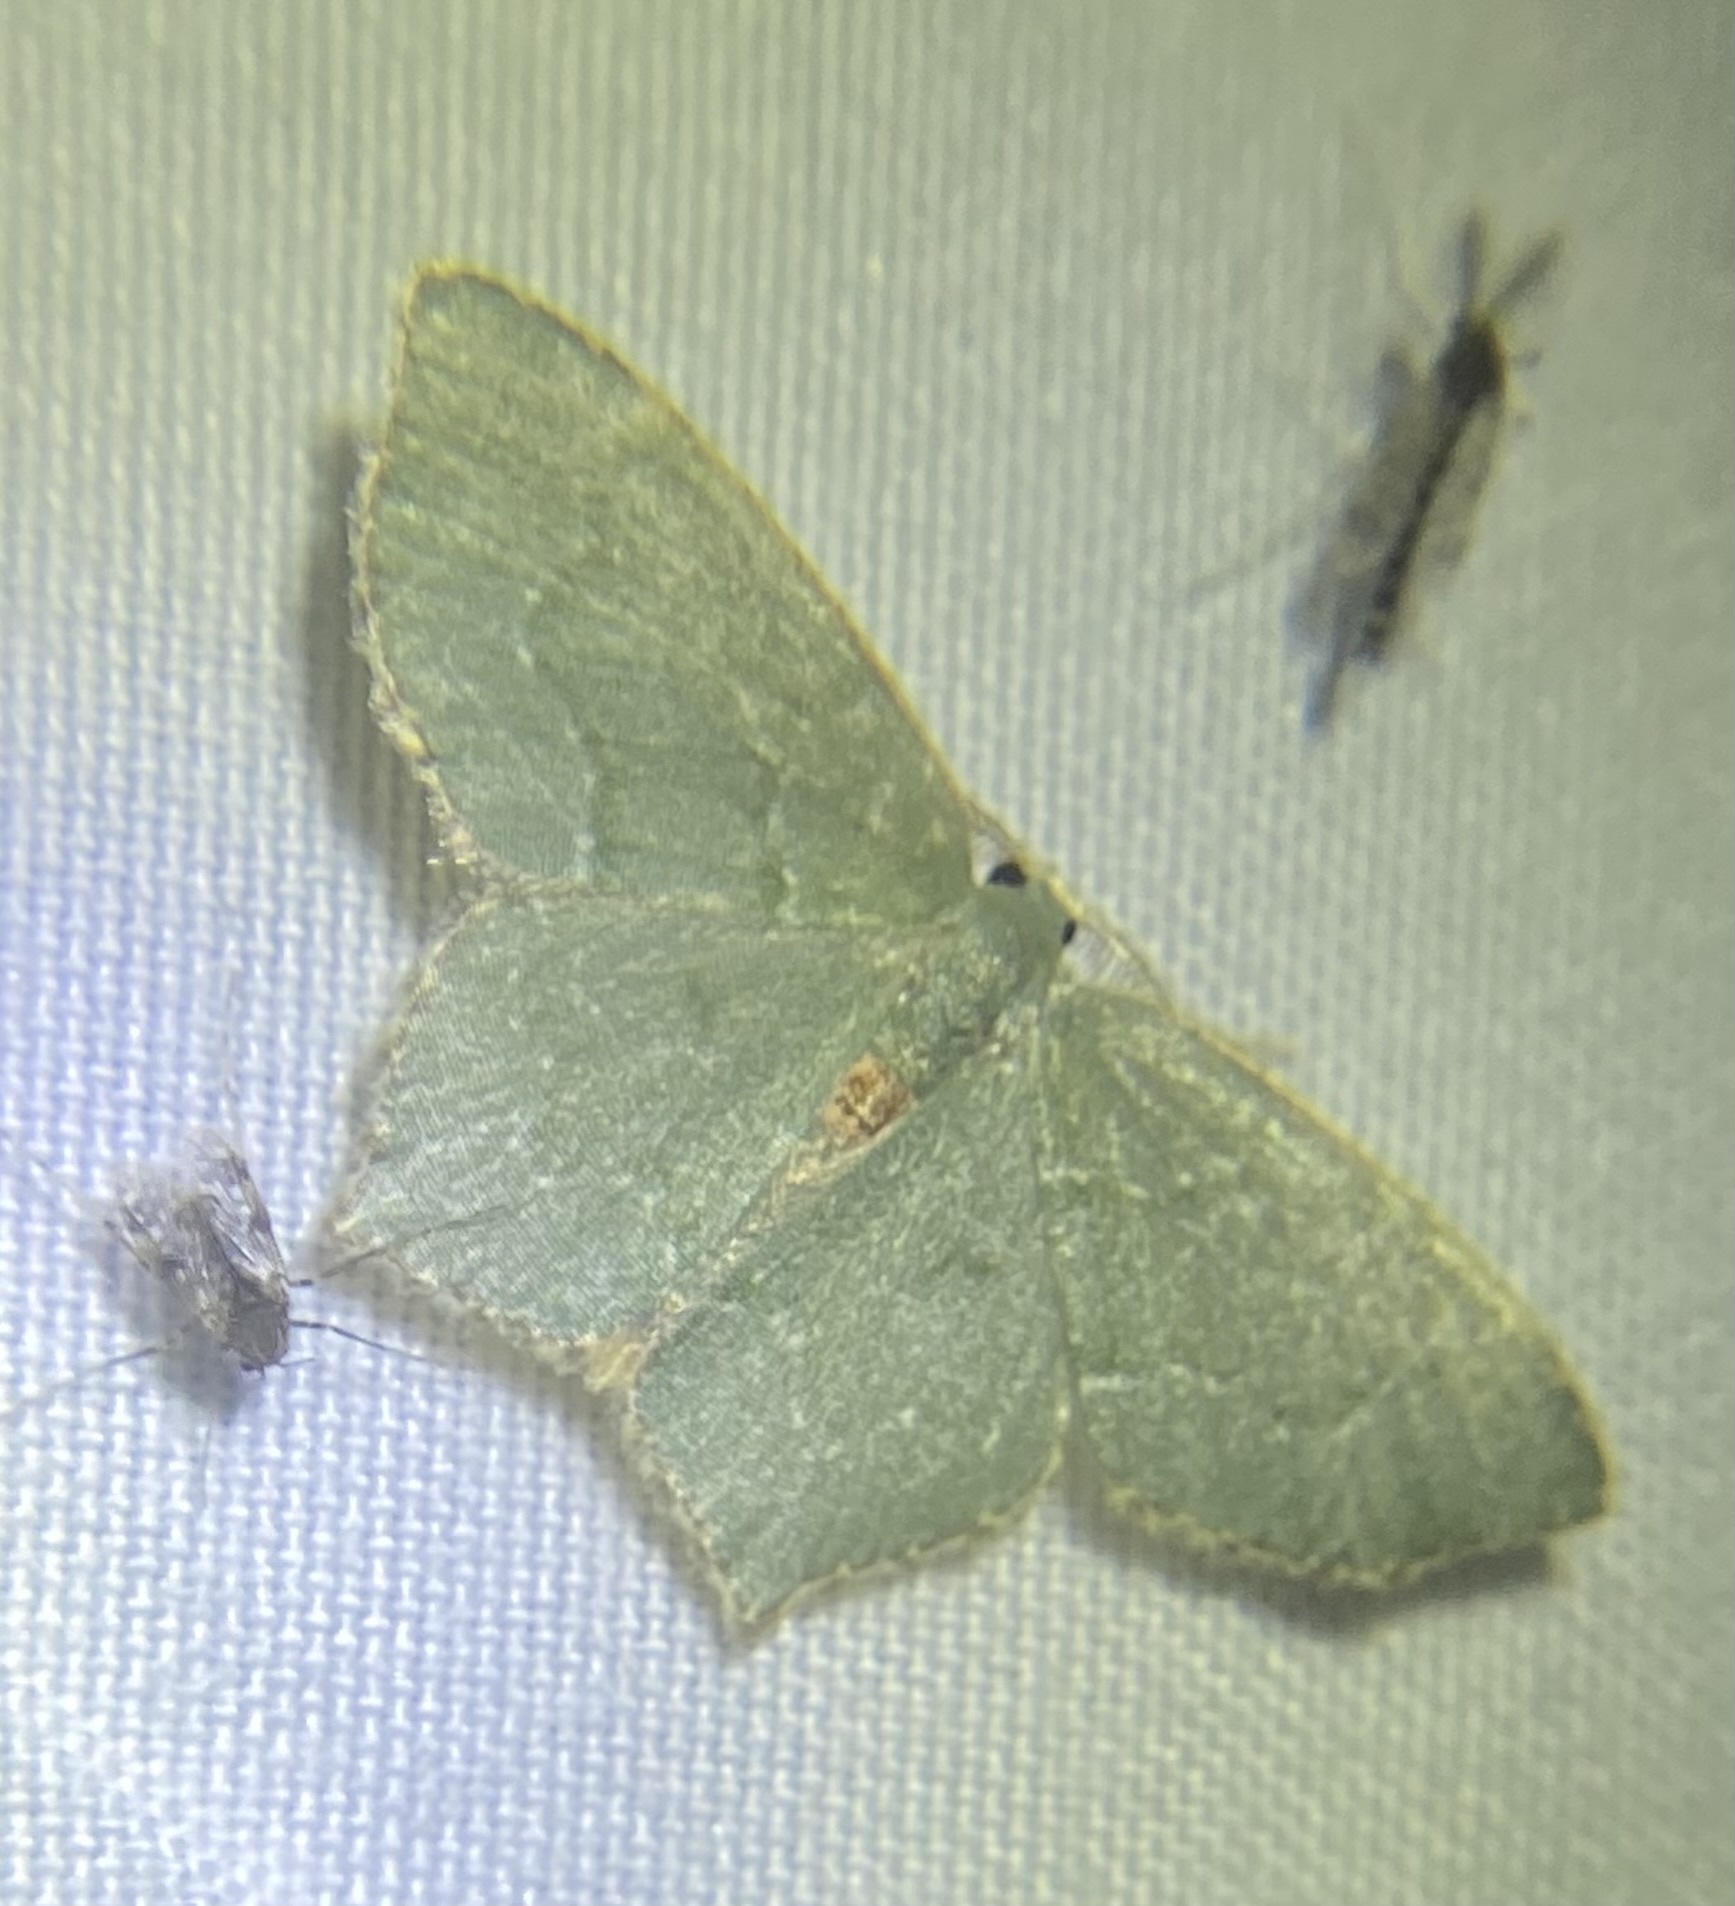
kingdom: Animalia
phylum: Arthropoda
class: Insecta
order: Lepidoptera
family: Geometridae
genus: Chloropteryx
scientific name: Chloropteryx tepperaria
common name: Angle winged emerald moth
